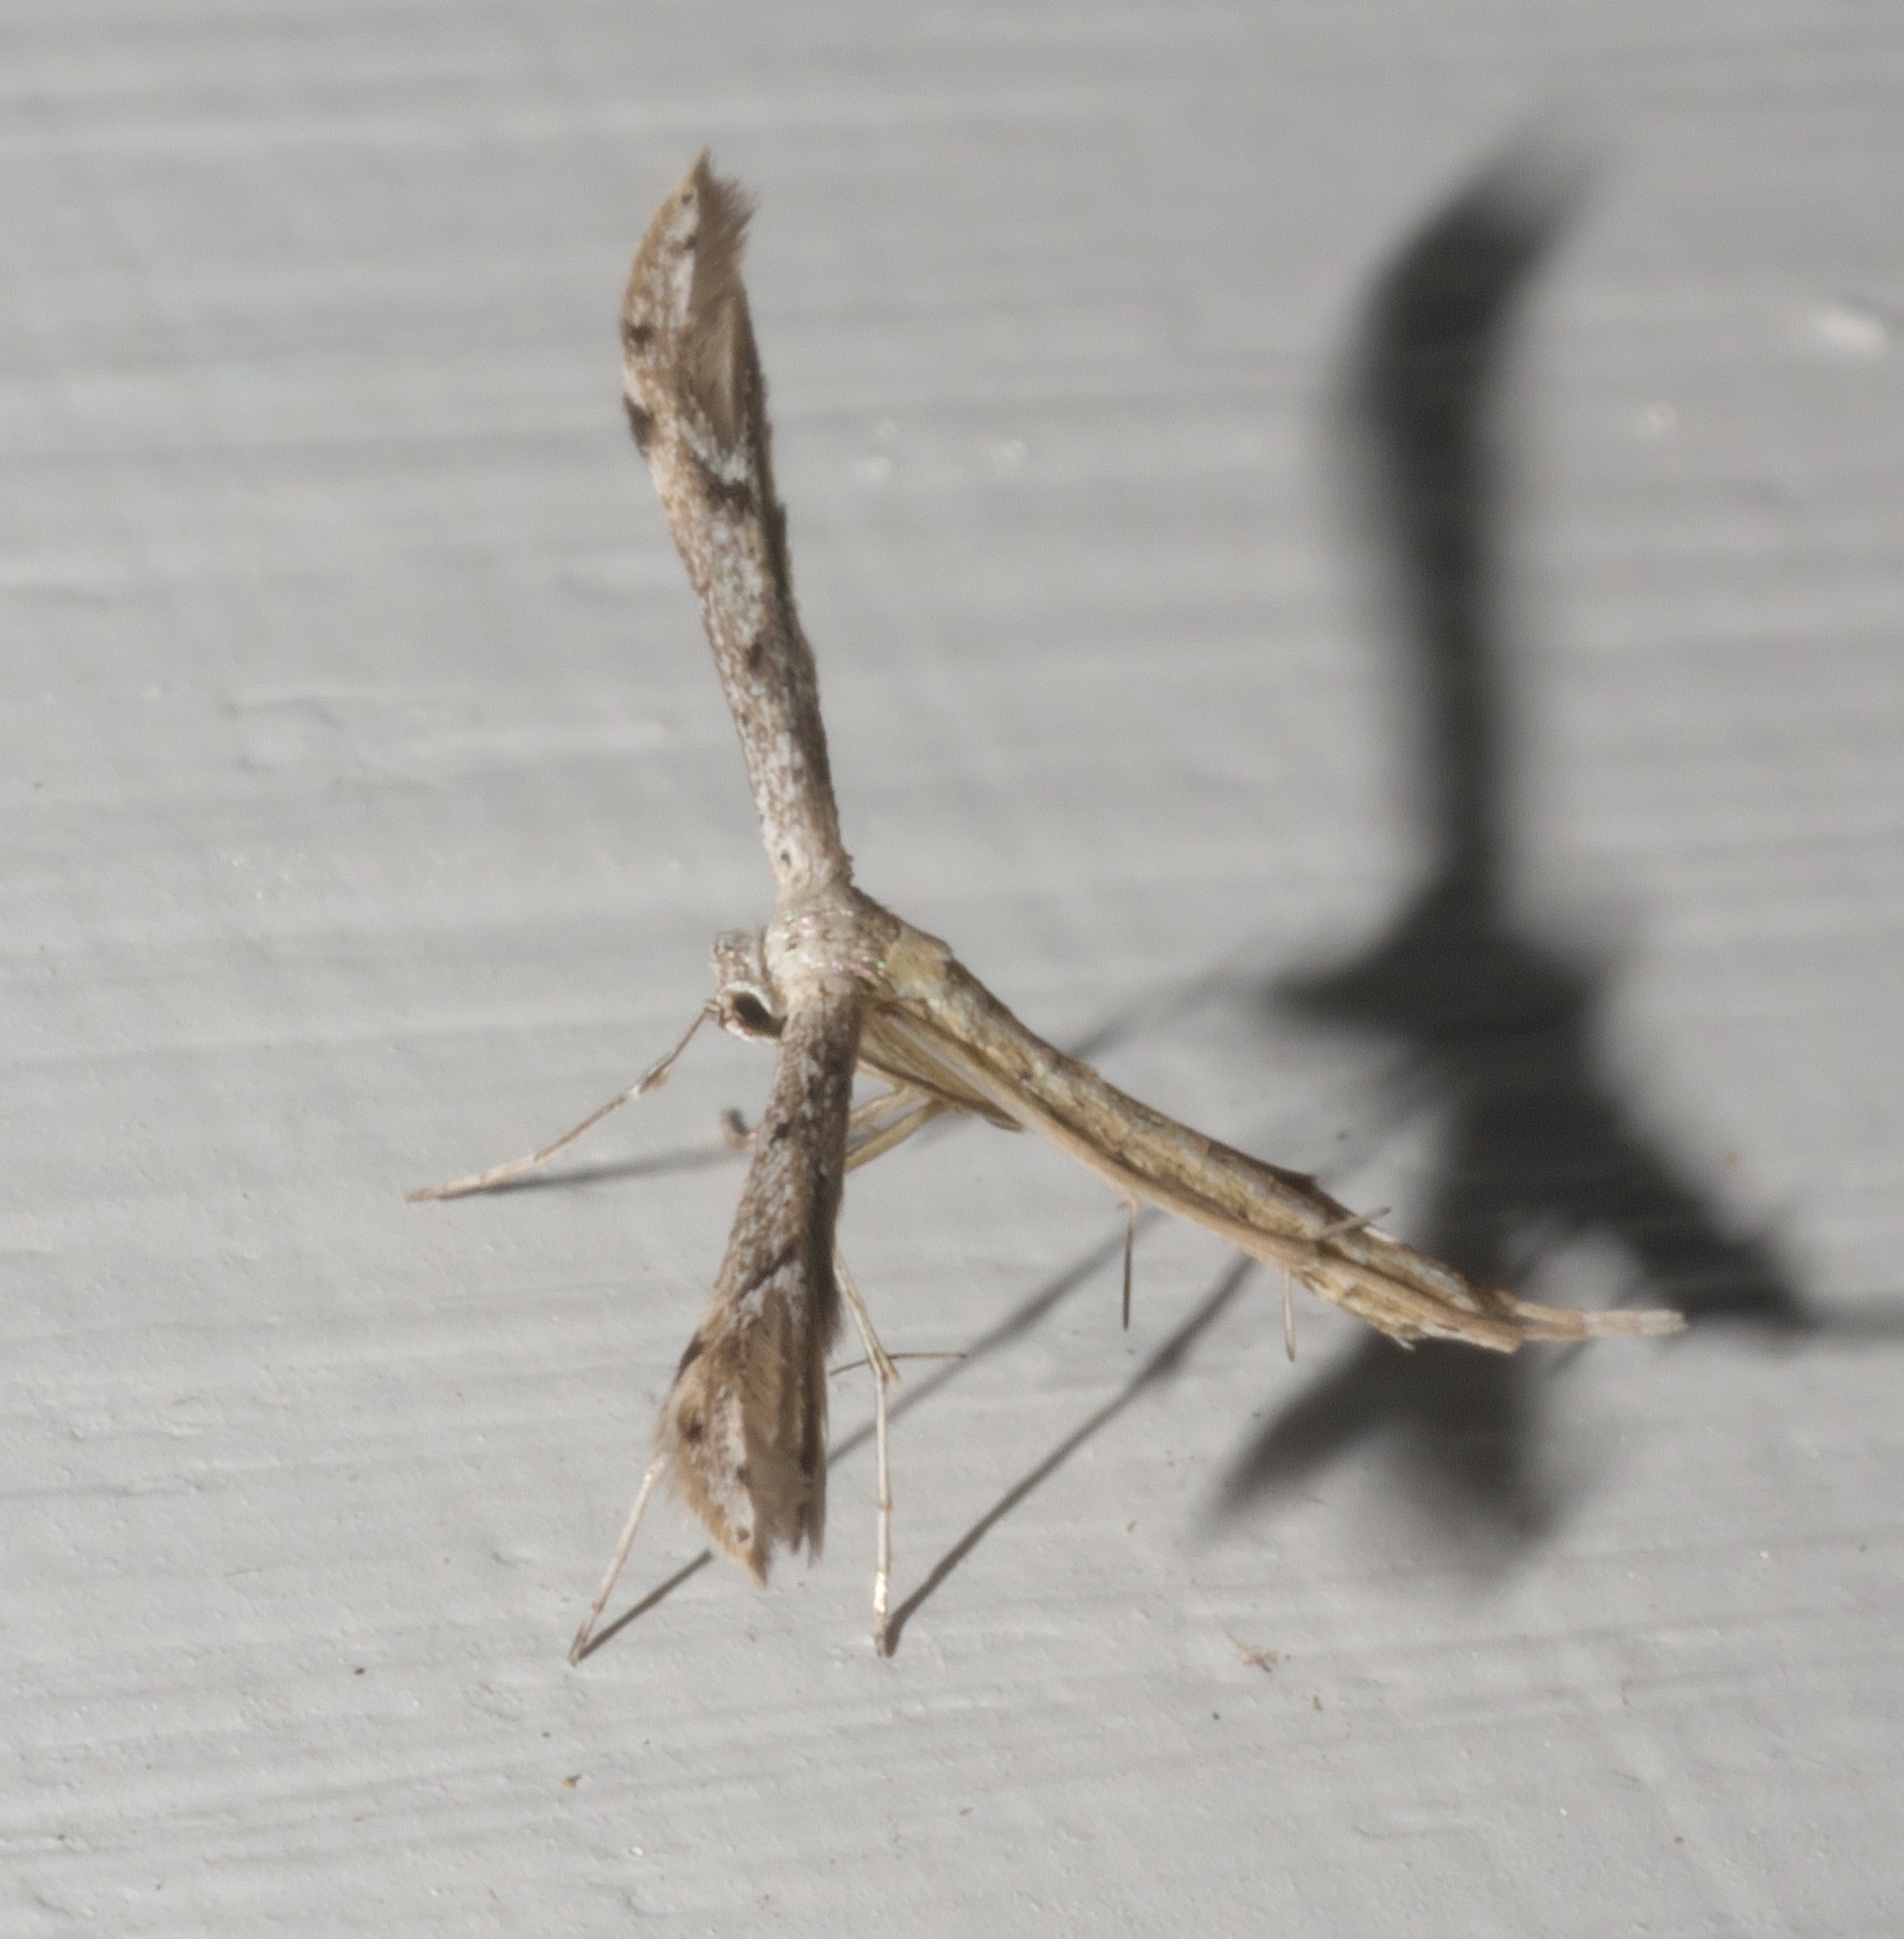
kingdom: Animalia
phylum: Arthropoda
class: Insecta
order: Lepidoptera
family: Pterophoridae
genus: Pselnophorus
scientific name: Pselnophorus belfragei
